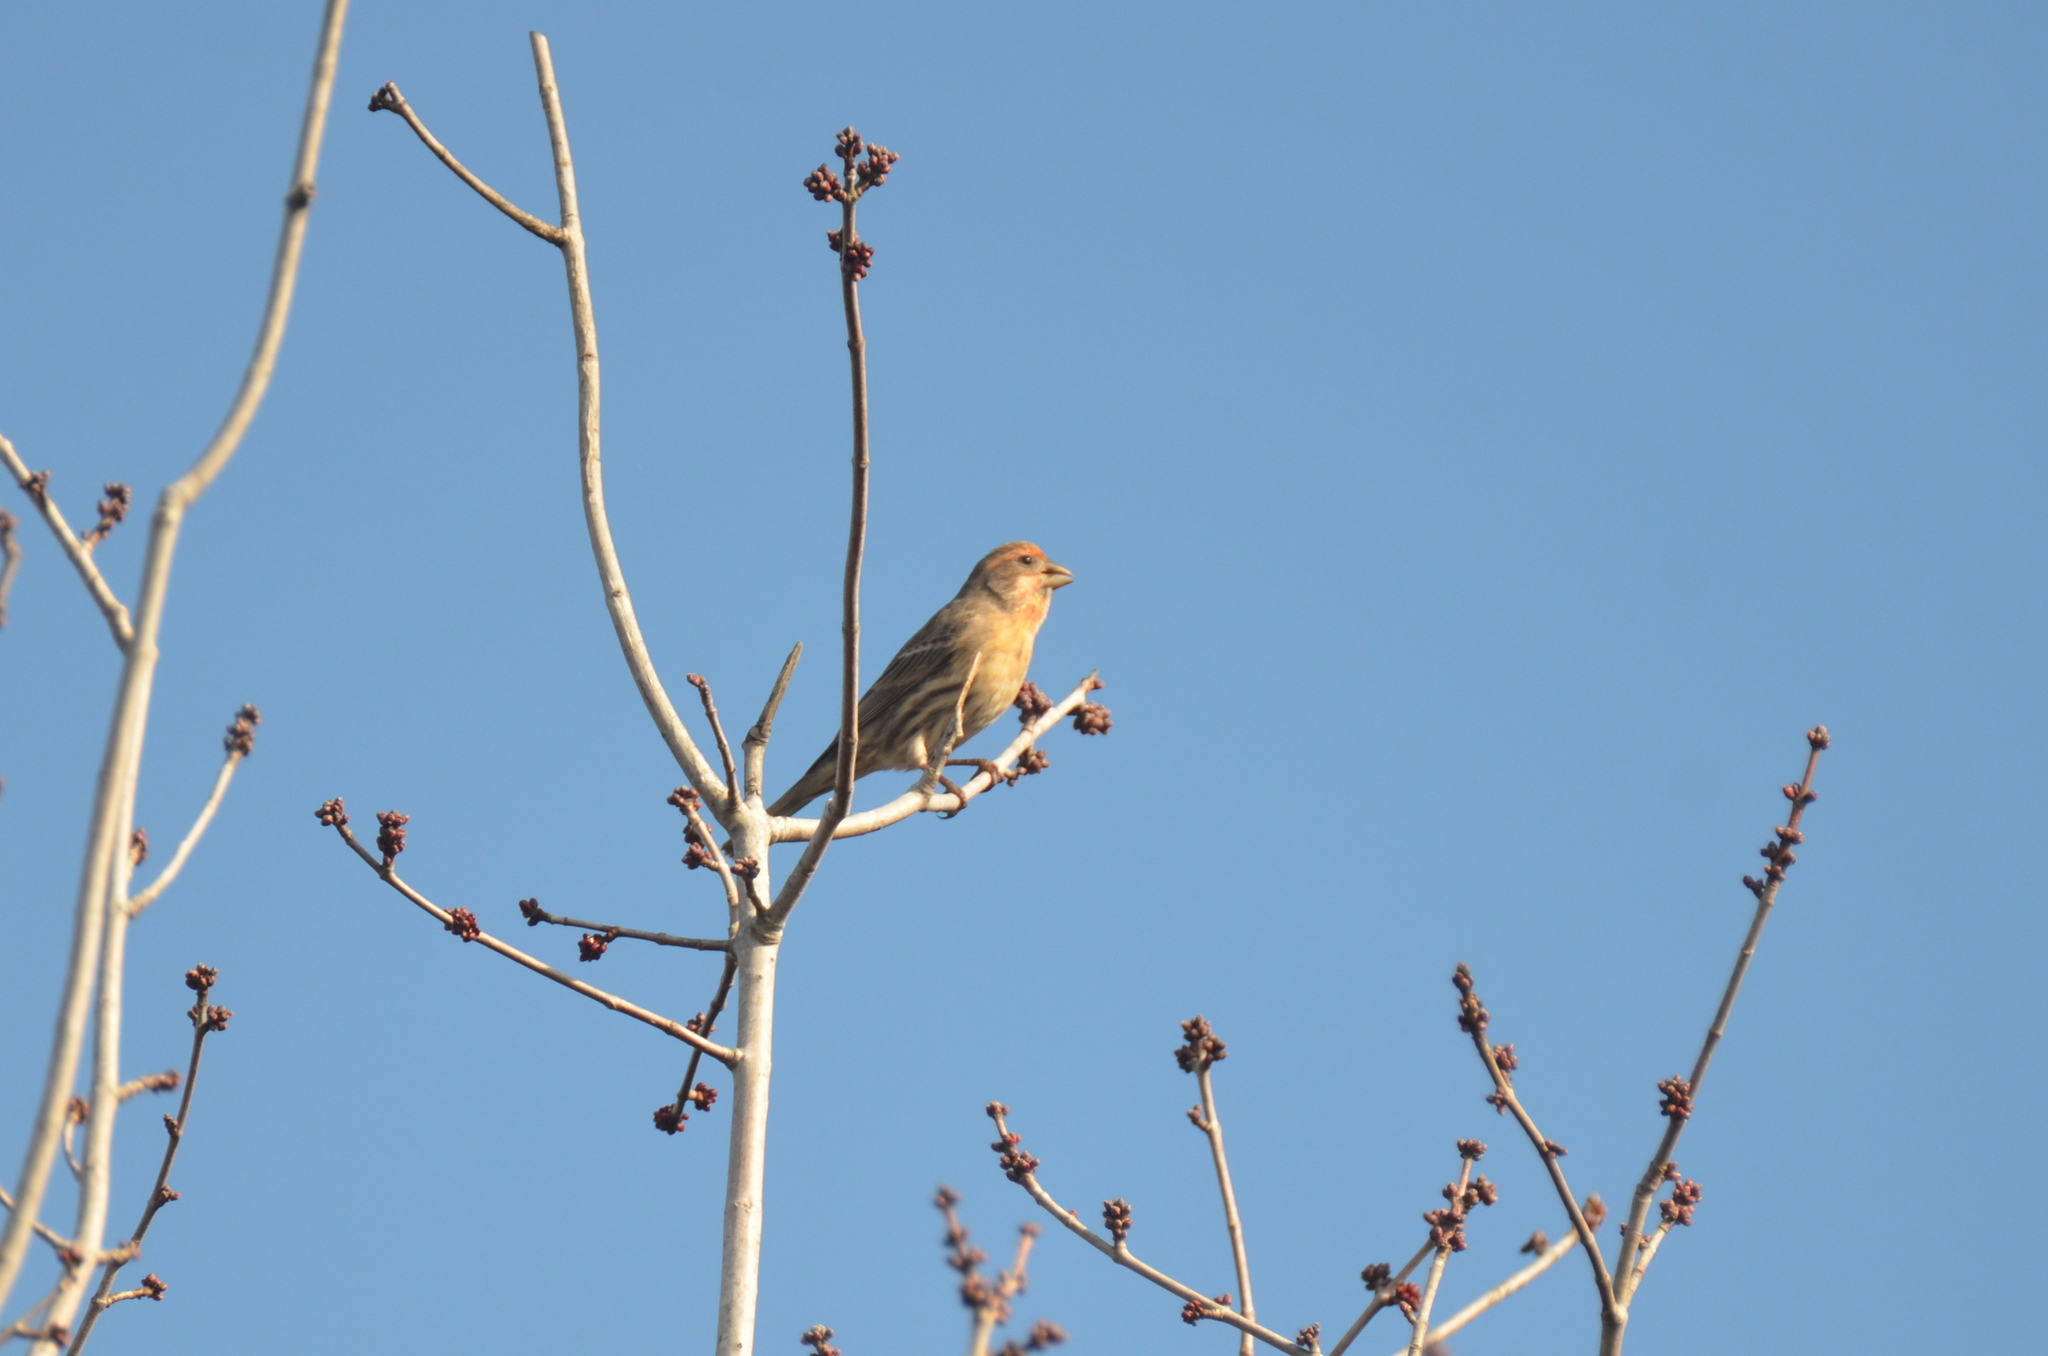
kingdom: Animalia
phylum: Chordata
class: Aves
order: Passeriformes
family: Fringillidae
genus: Haemorhous
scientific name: Haemorhous mexicanus
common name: House finch
